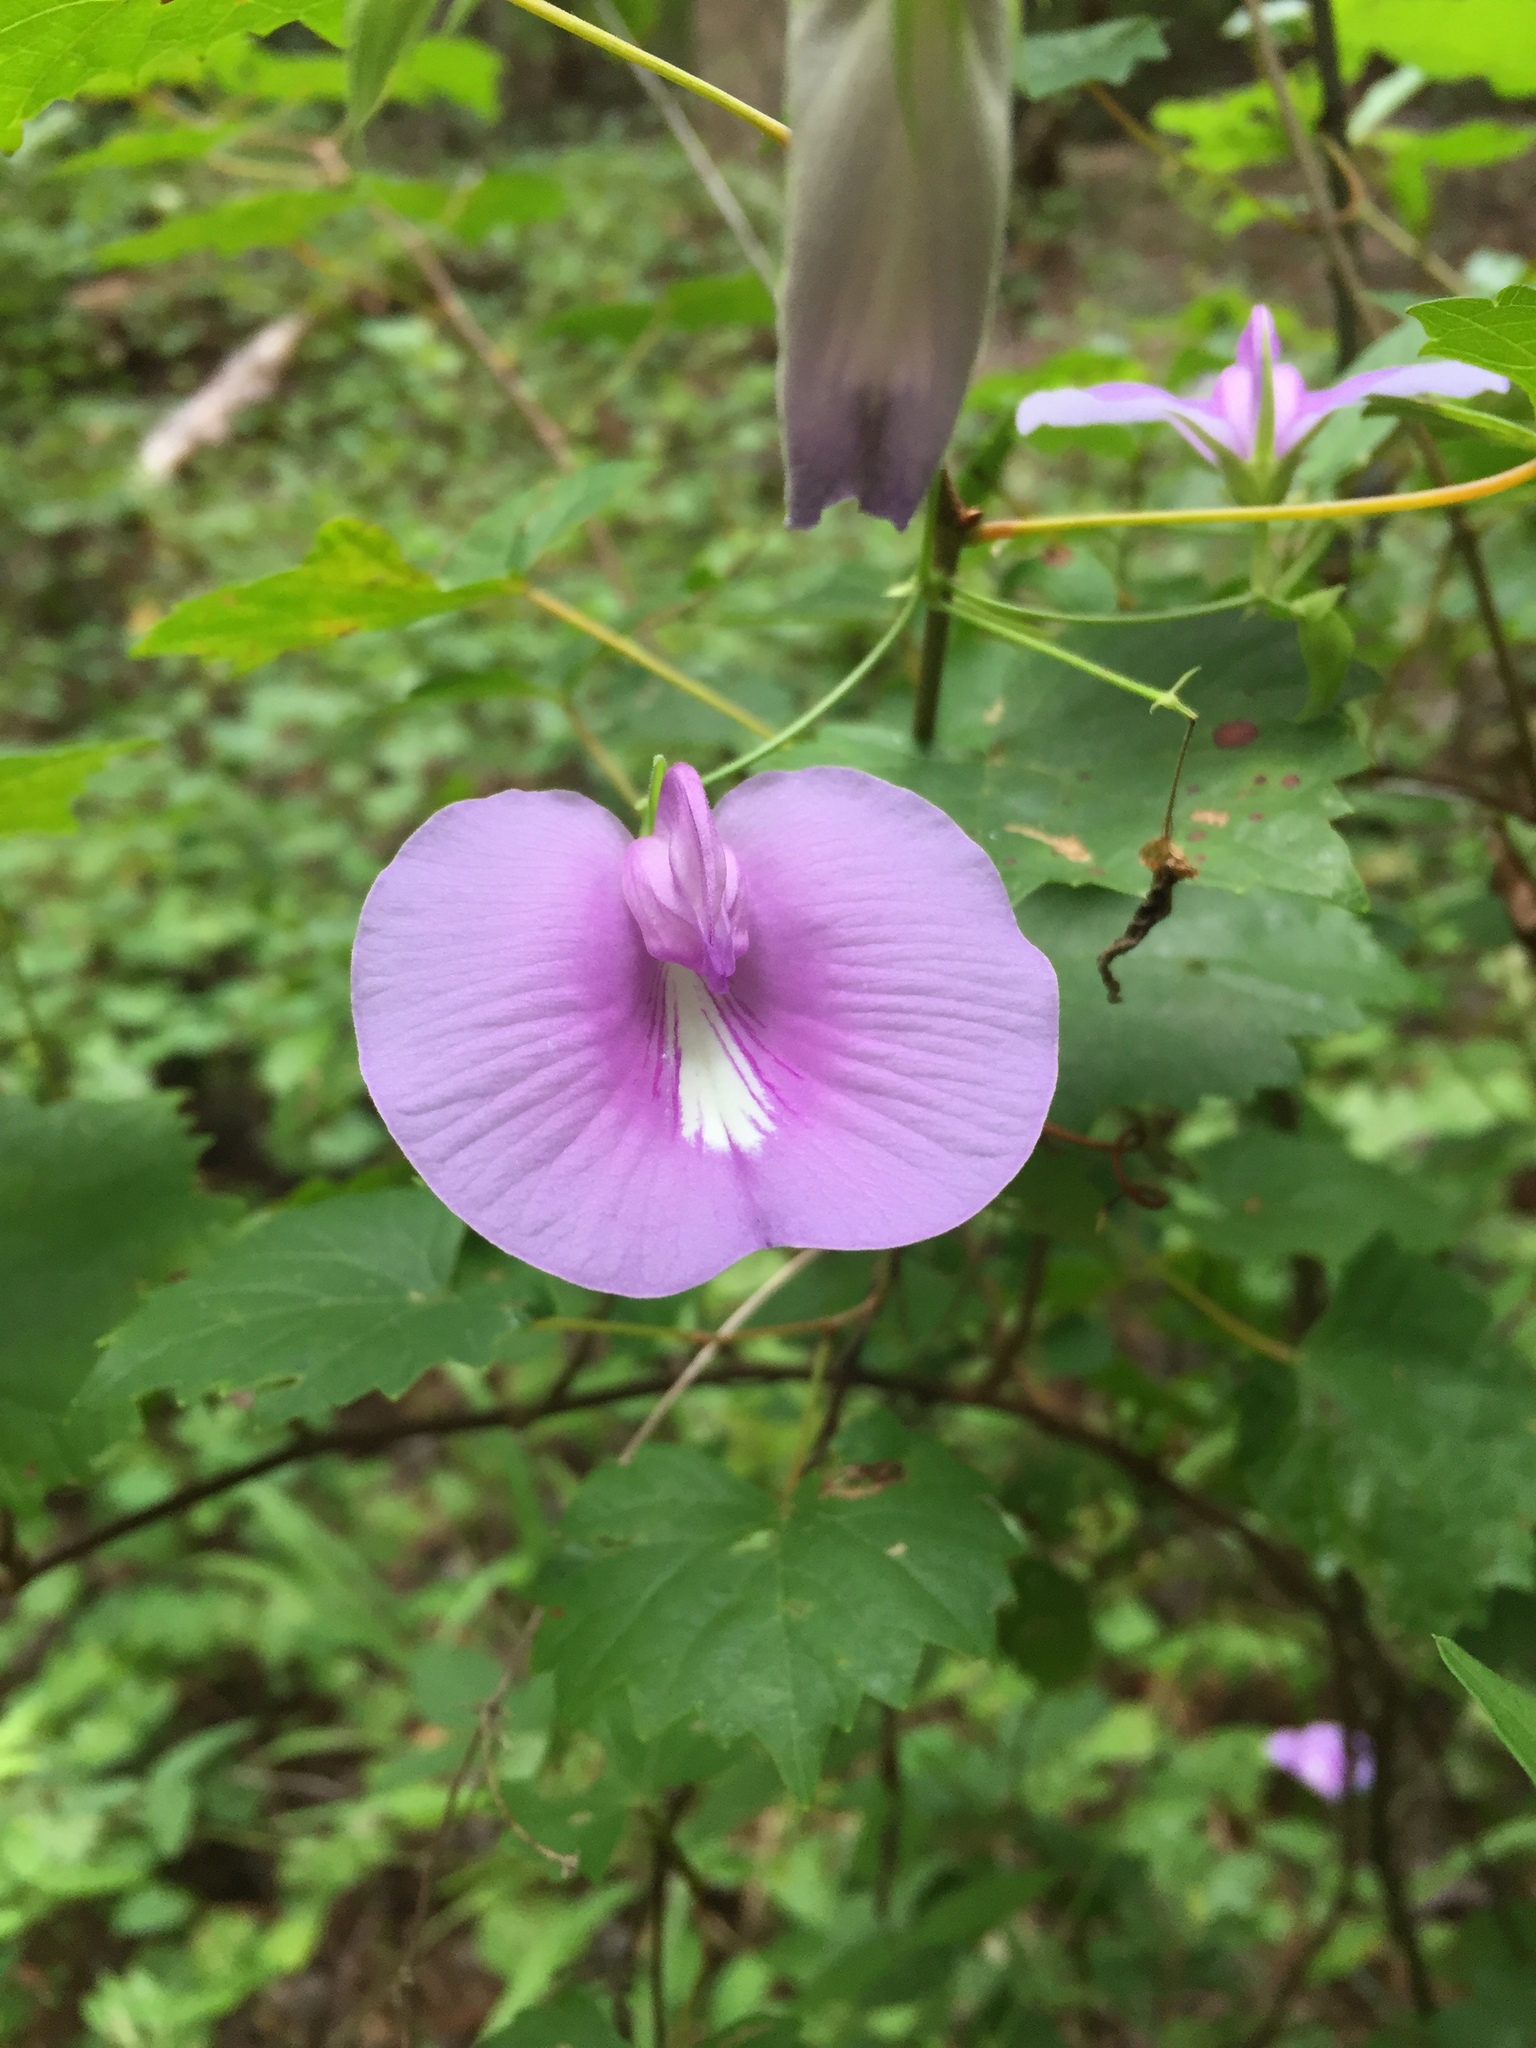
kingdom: Plantae
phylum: Tracheophyta
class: Magnoliopsida
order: Fabales
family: Fabaceae
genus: Centrosema
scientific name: Centrosema virginianum
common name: Butterfly-pea
